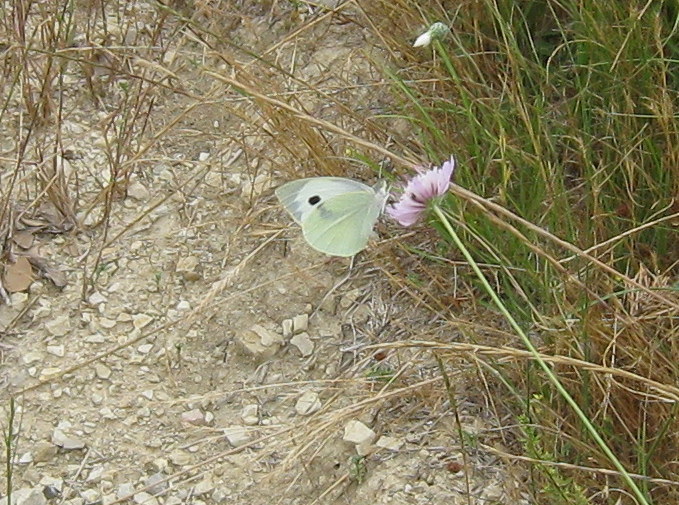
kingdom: Animalia
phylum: Arthropoda
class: Insecta
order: Lepidoptera
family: Pieridae
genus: Pieris
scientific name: Pieris brassicae
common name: Large white
